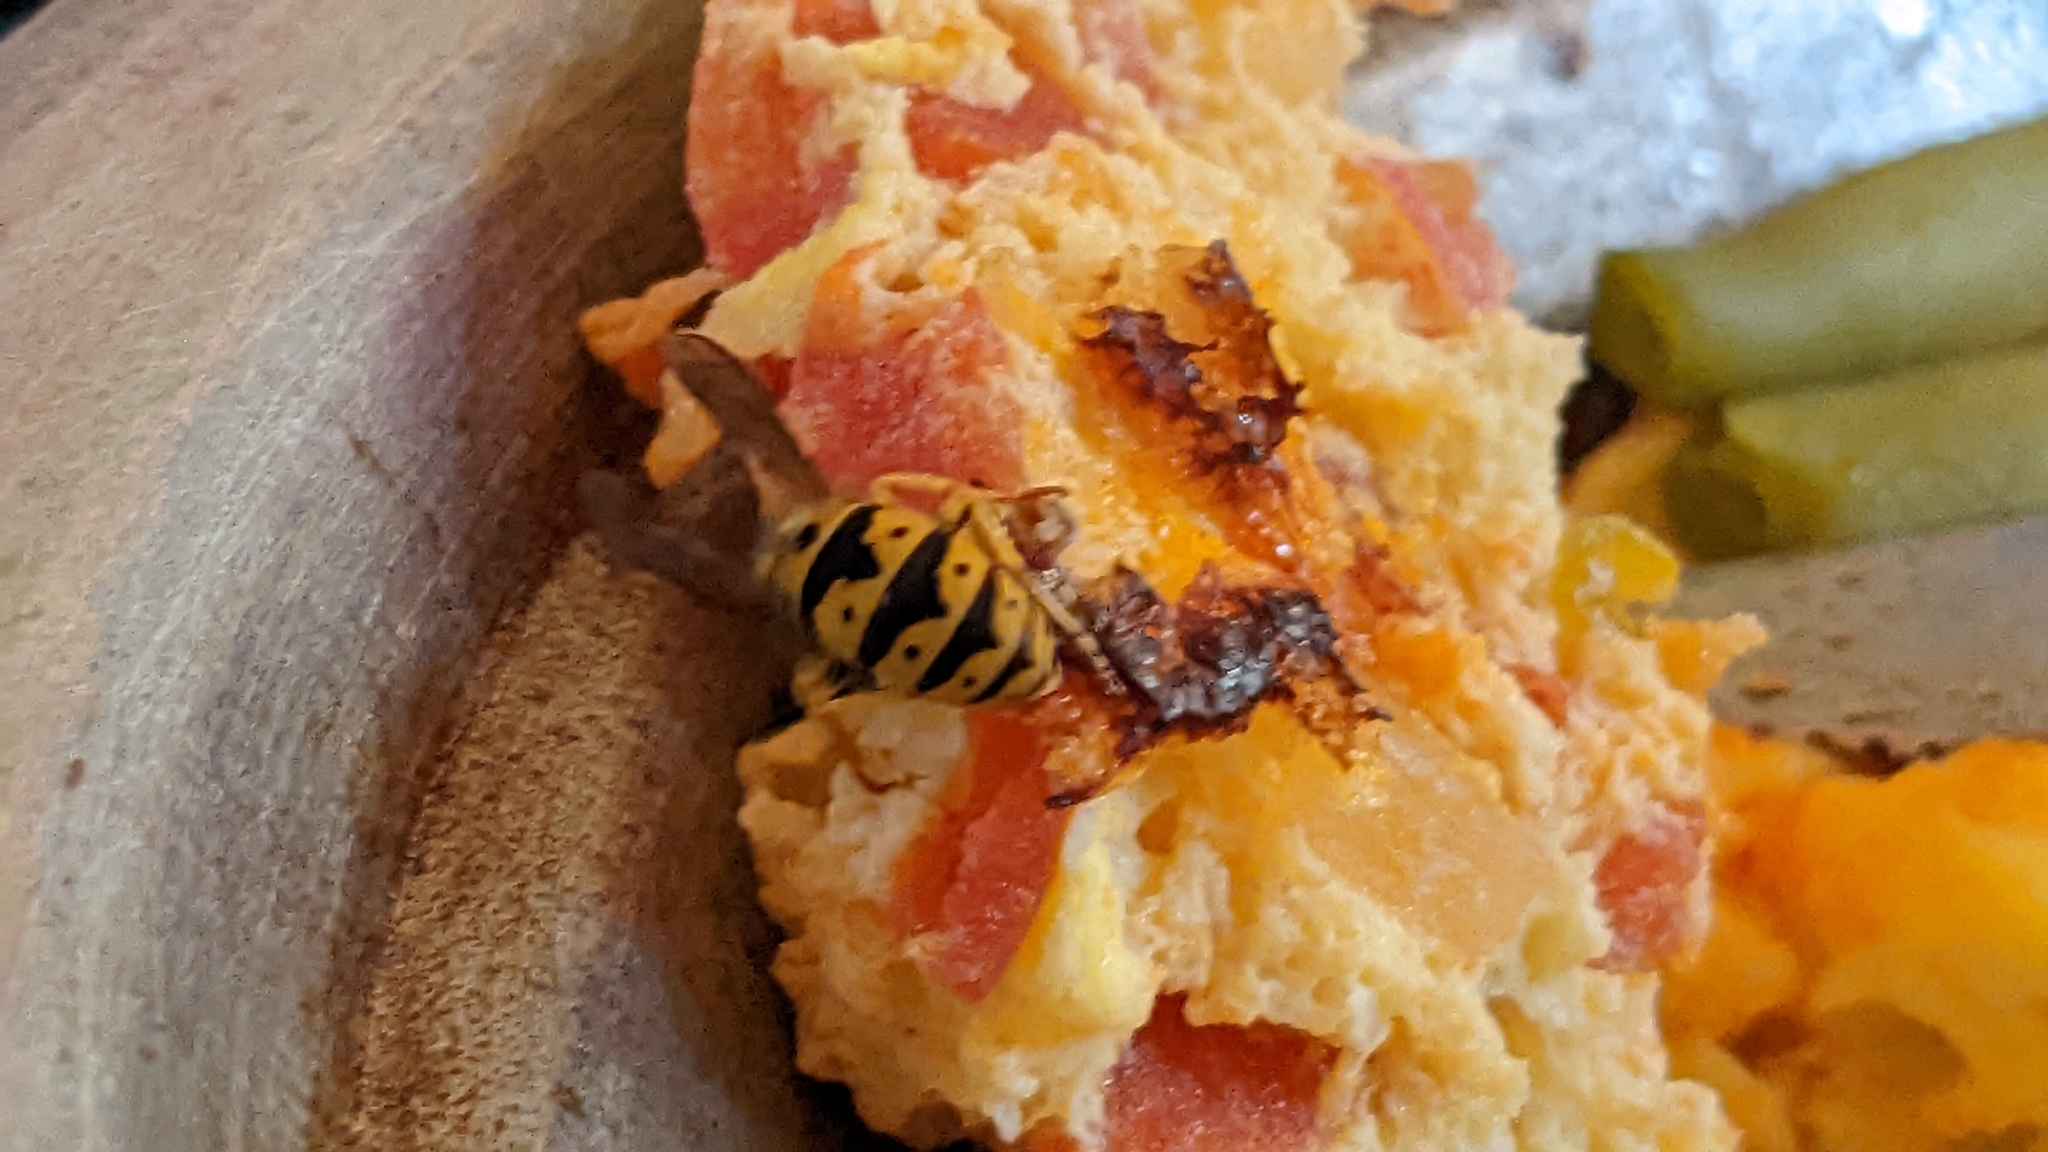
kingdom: Animalia
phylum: Arthropoda
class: Insecta
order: Hymenoptera
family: Vespidae
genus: Vespula
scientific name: Vespula germanica
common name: German wasp
